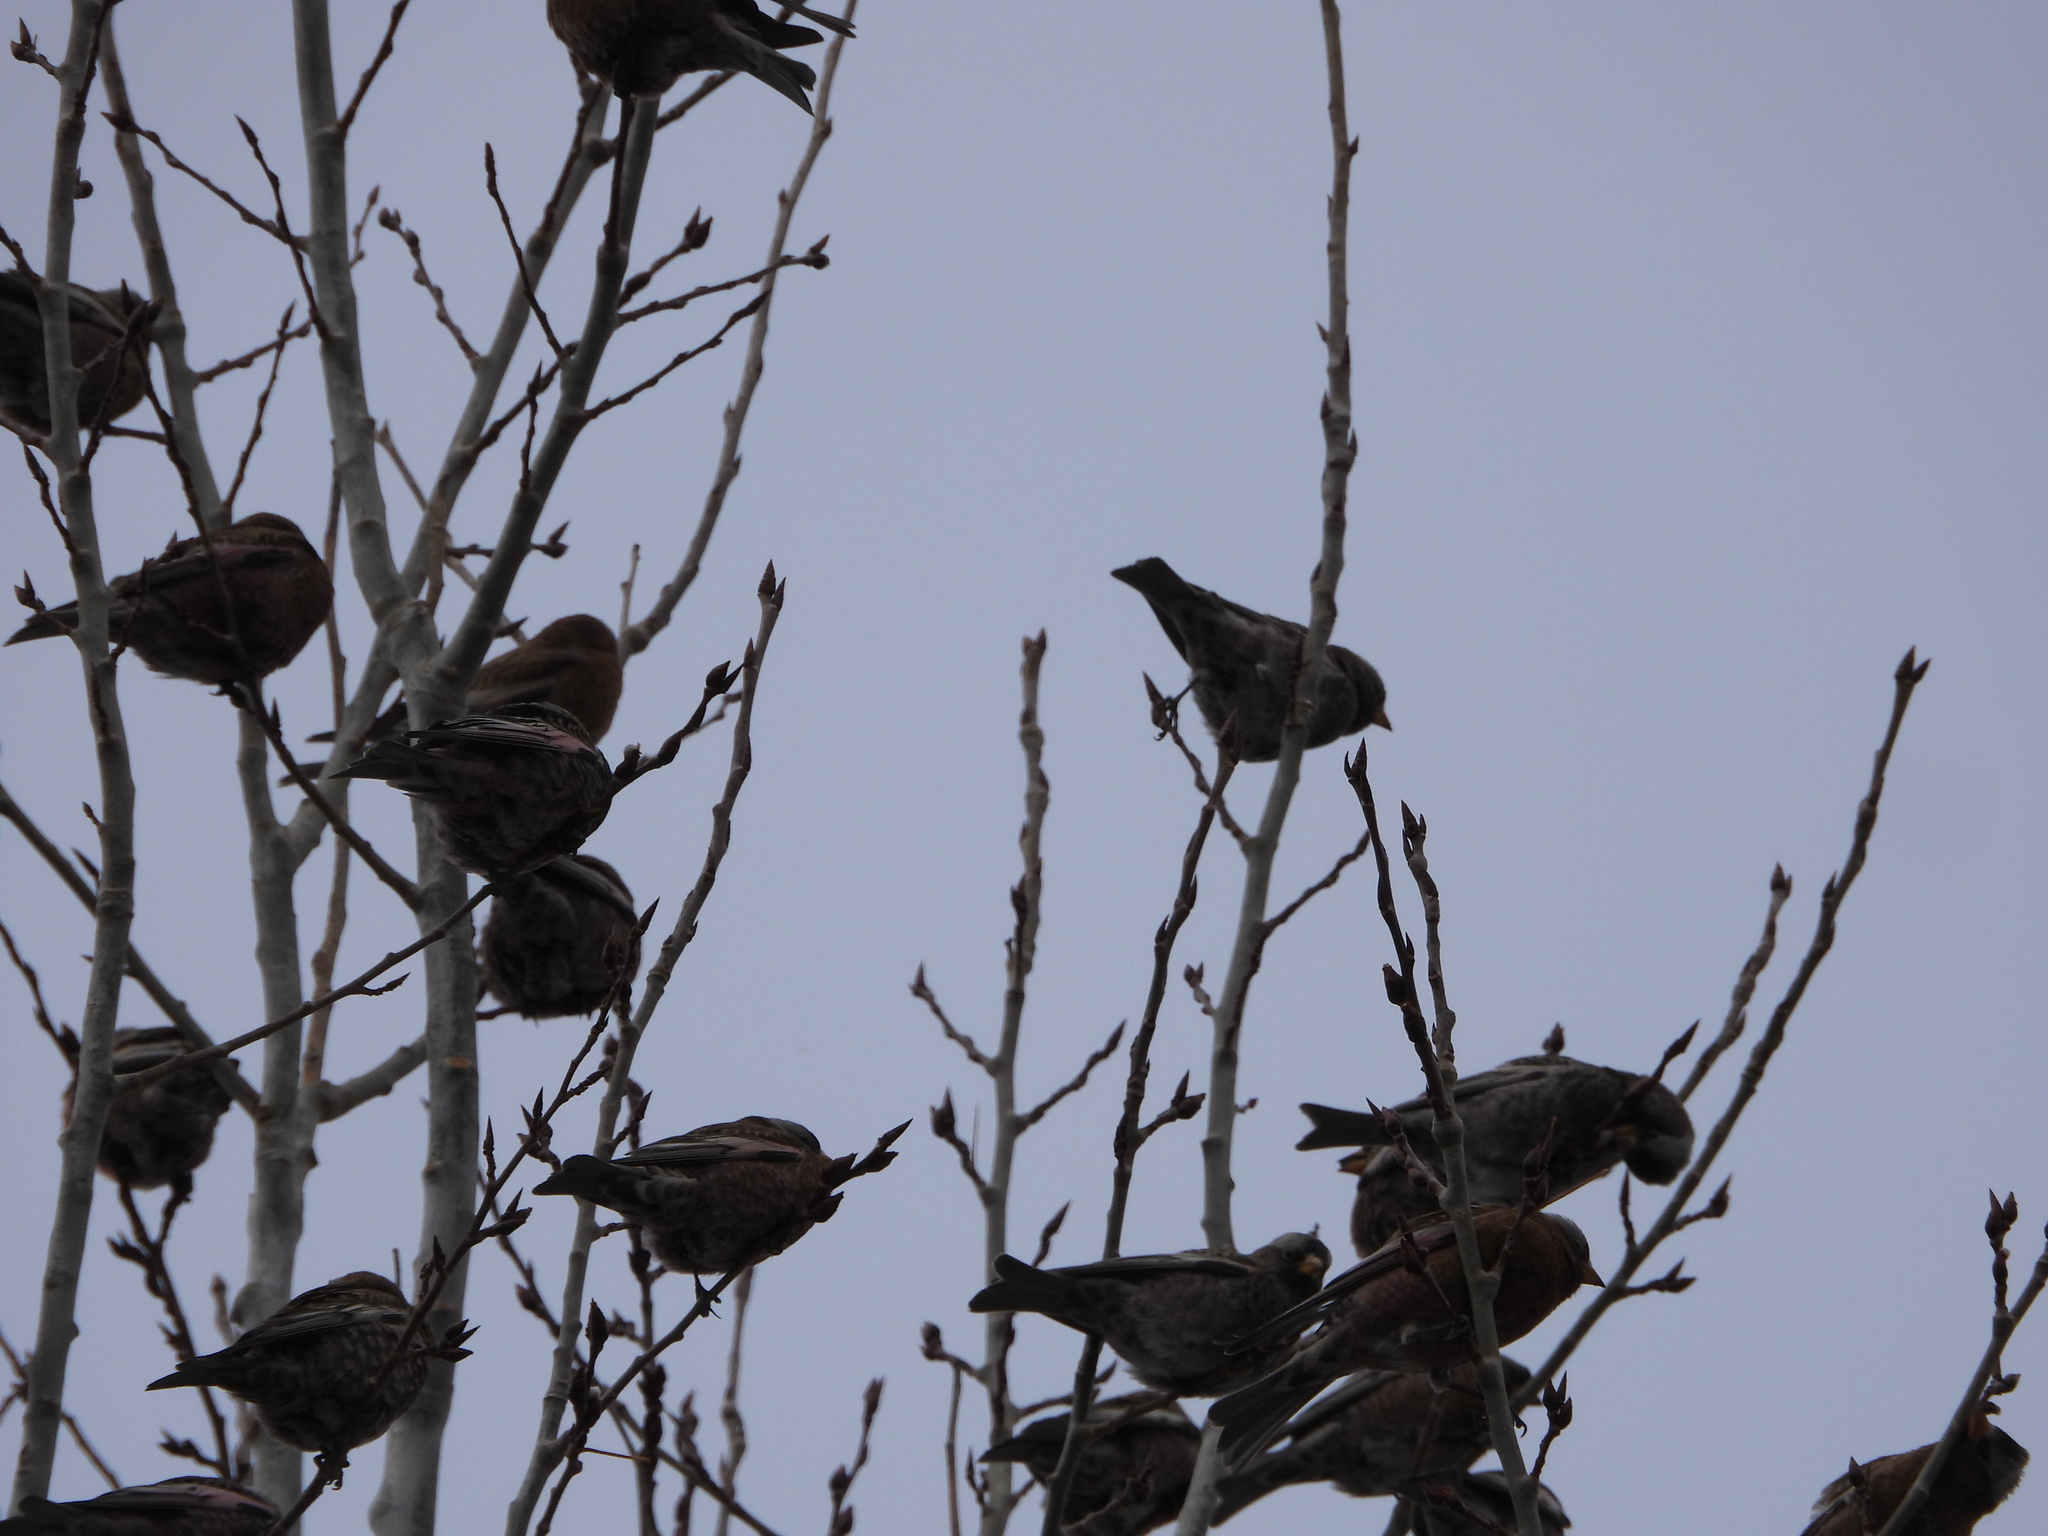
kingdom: Animalia
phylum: Chordata
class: Aves
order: Passeriformes
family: Fringillidae
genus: Leucosticte
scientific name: Leucosticte atrata
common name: Black rosy-finch
